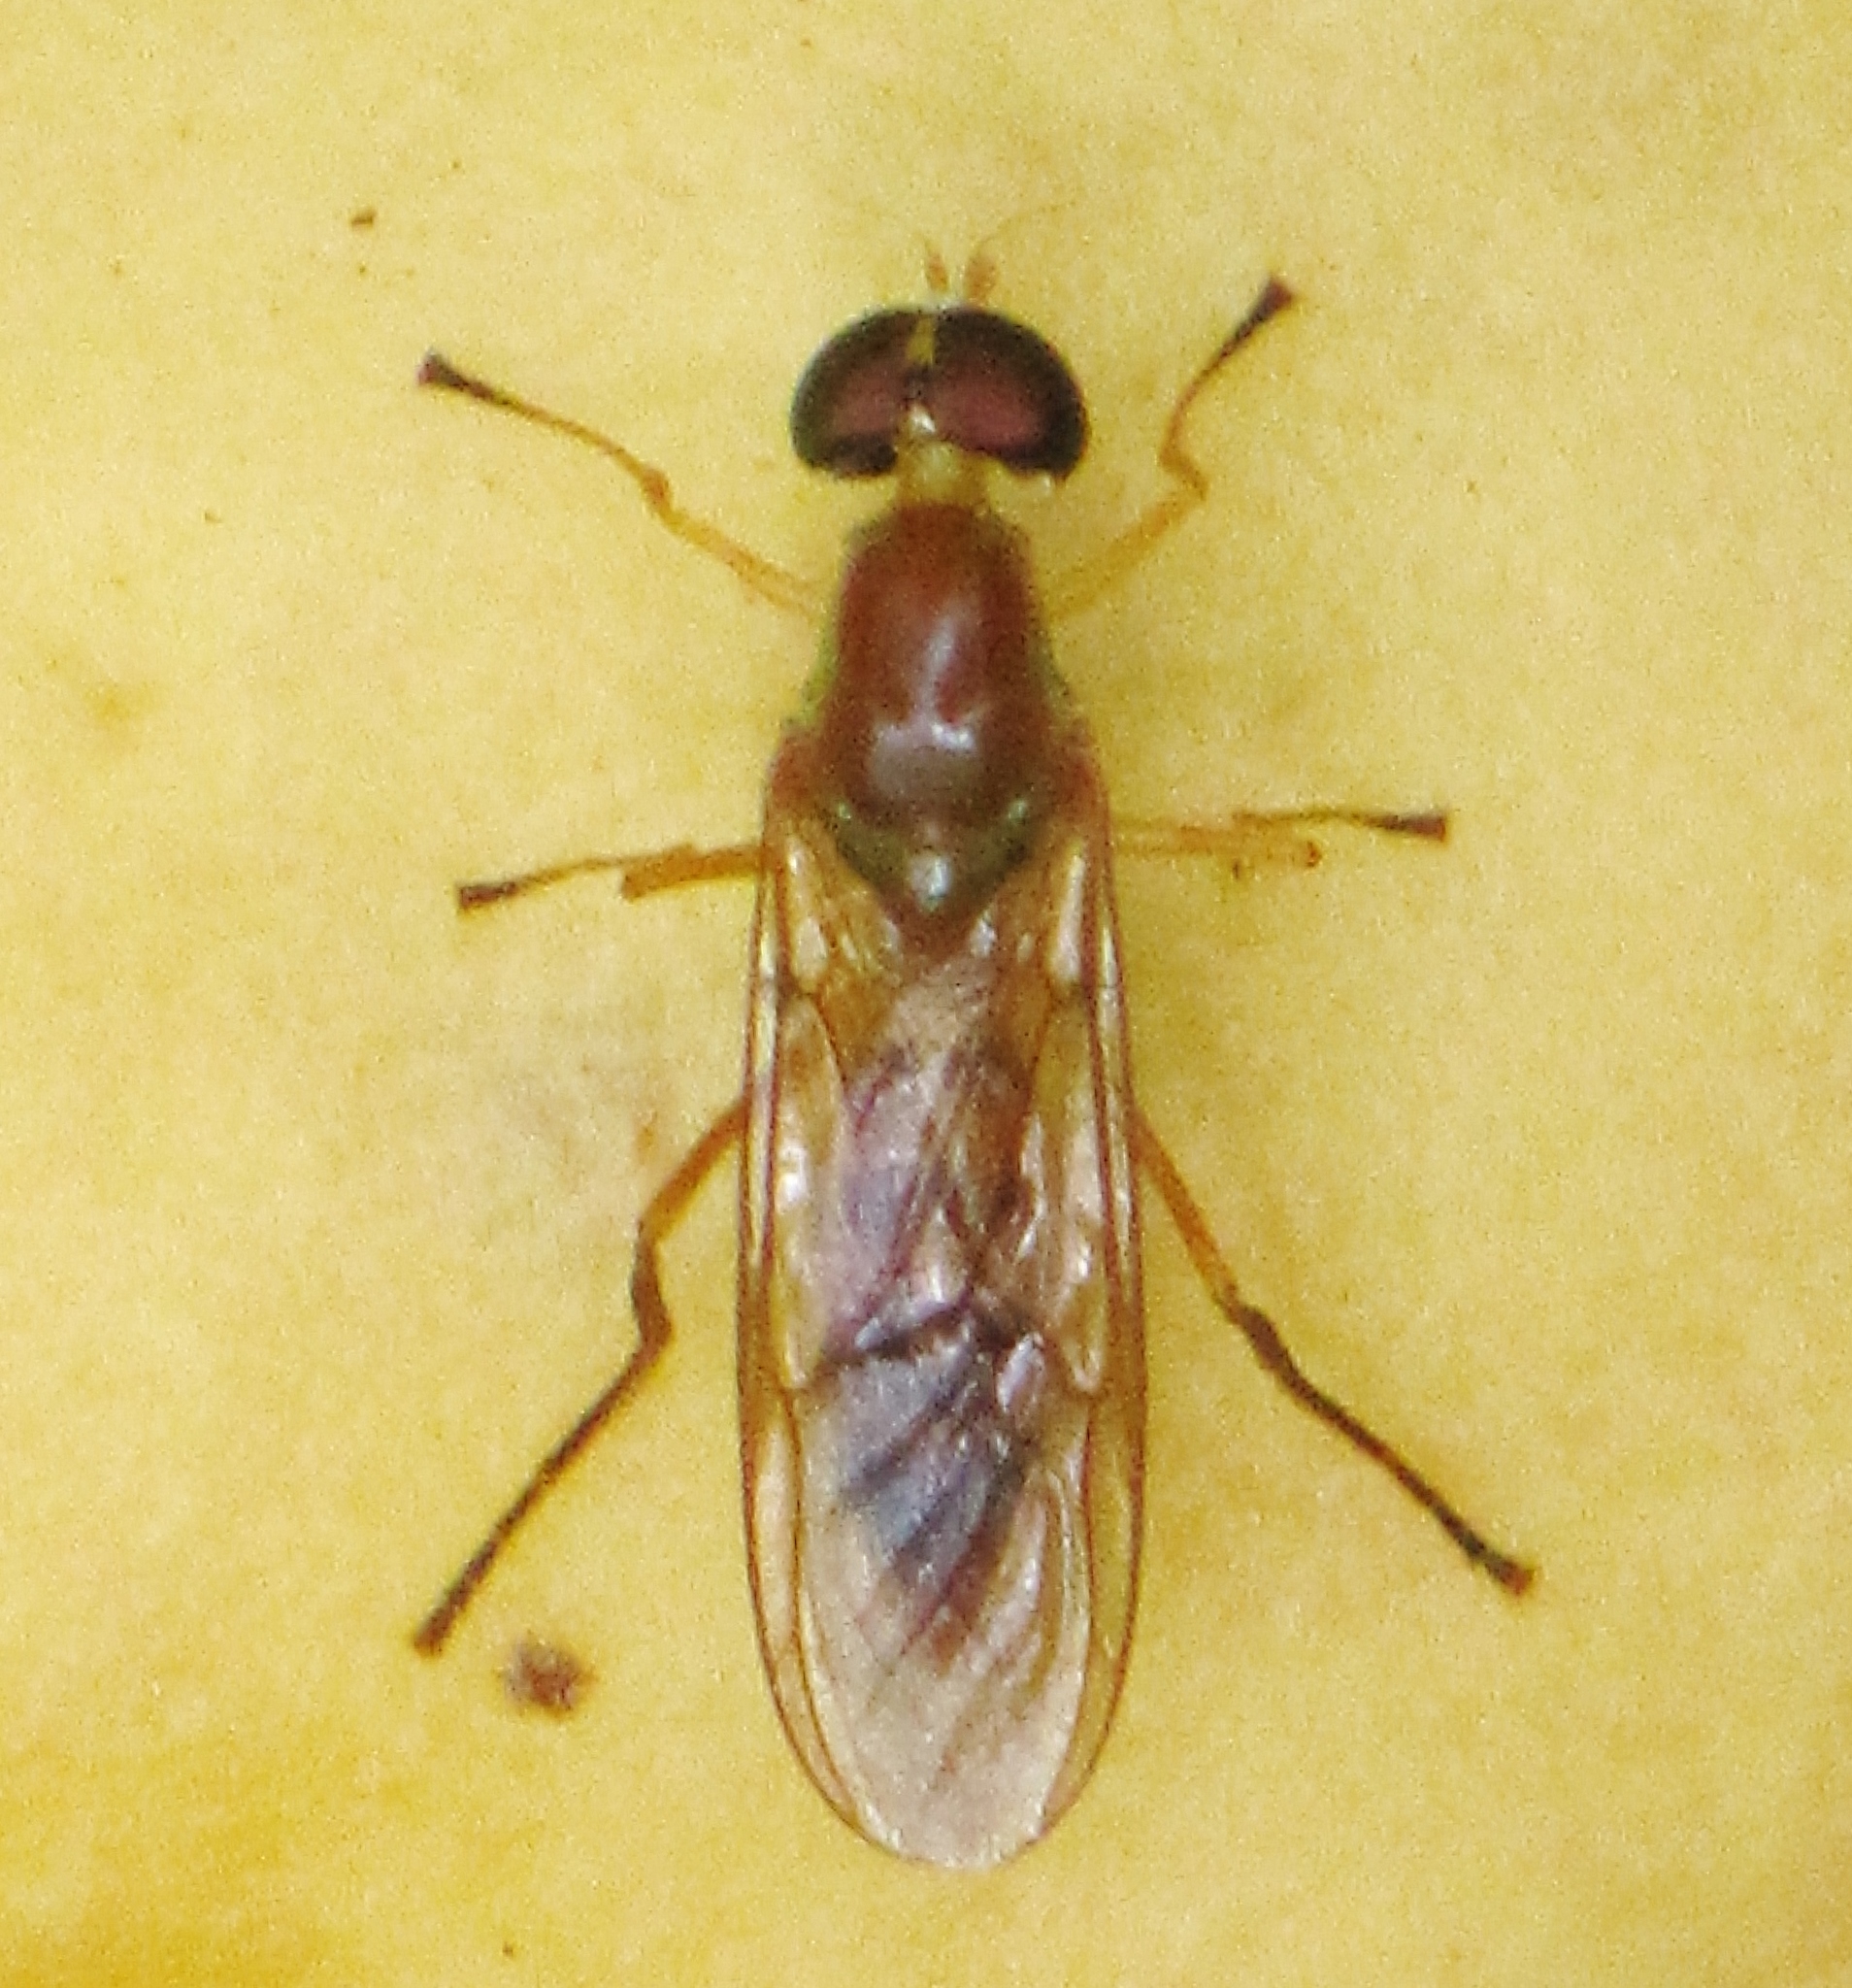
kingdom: Animalia
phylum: Arthropoda
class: Insecta
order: Diptera
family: Stratiomyidae
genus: Ptecticus
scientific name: Ptecticus trivittatus
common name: Compost fly
